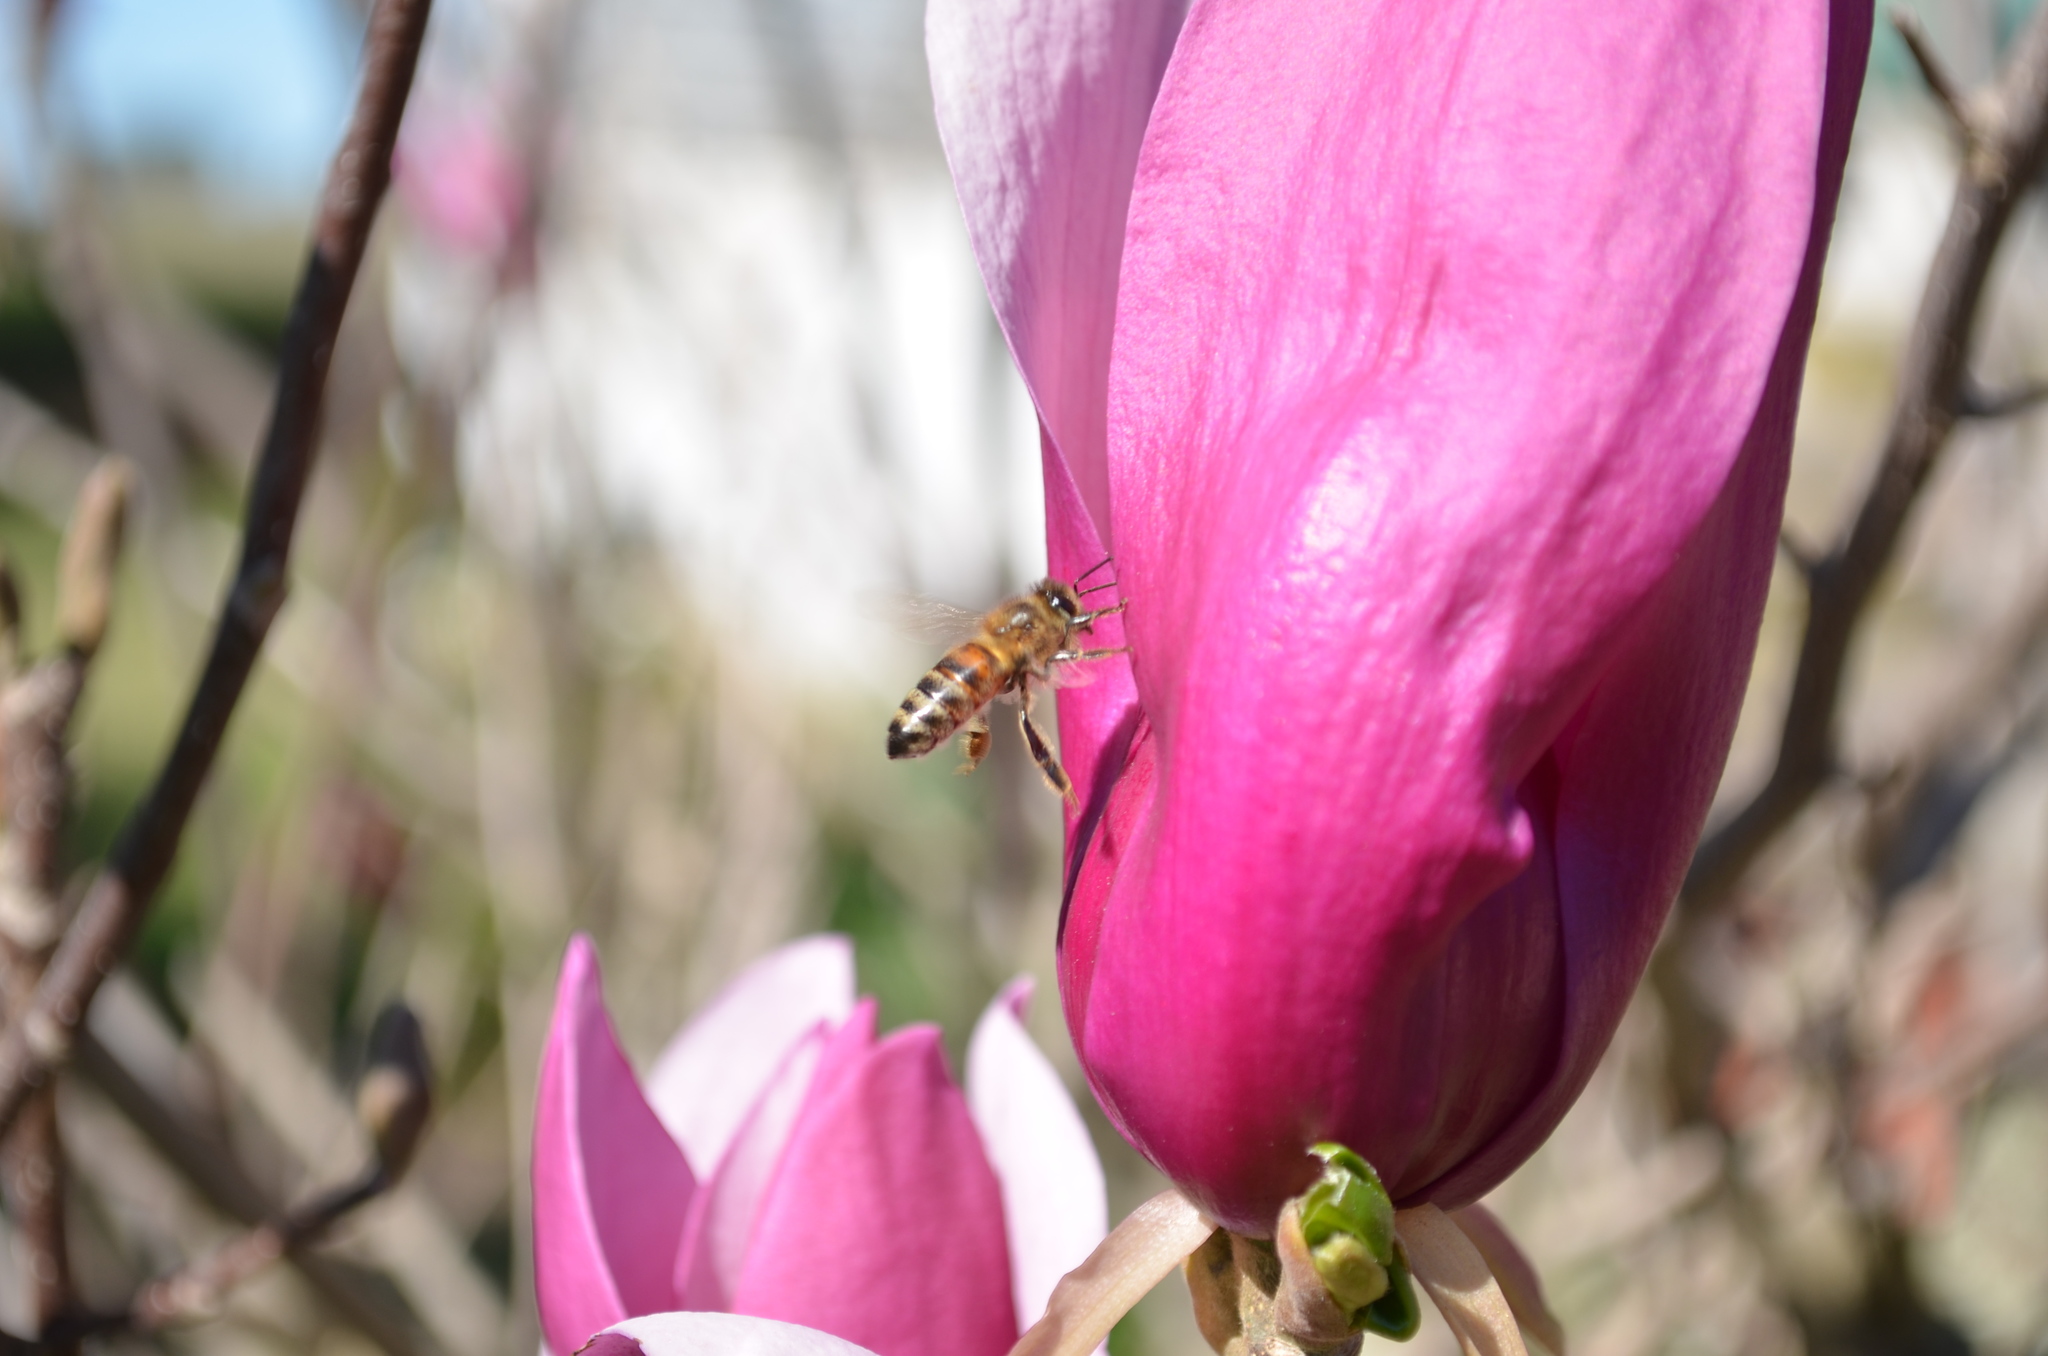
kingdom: Animalia
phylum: Arthropoda
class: Insecta
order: Hymenoptera
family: Apidae
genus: Apis
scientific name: Apis mellifera
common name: Honey bee
